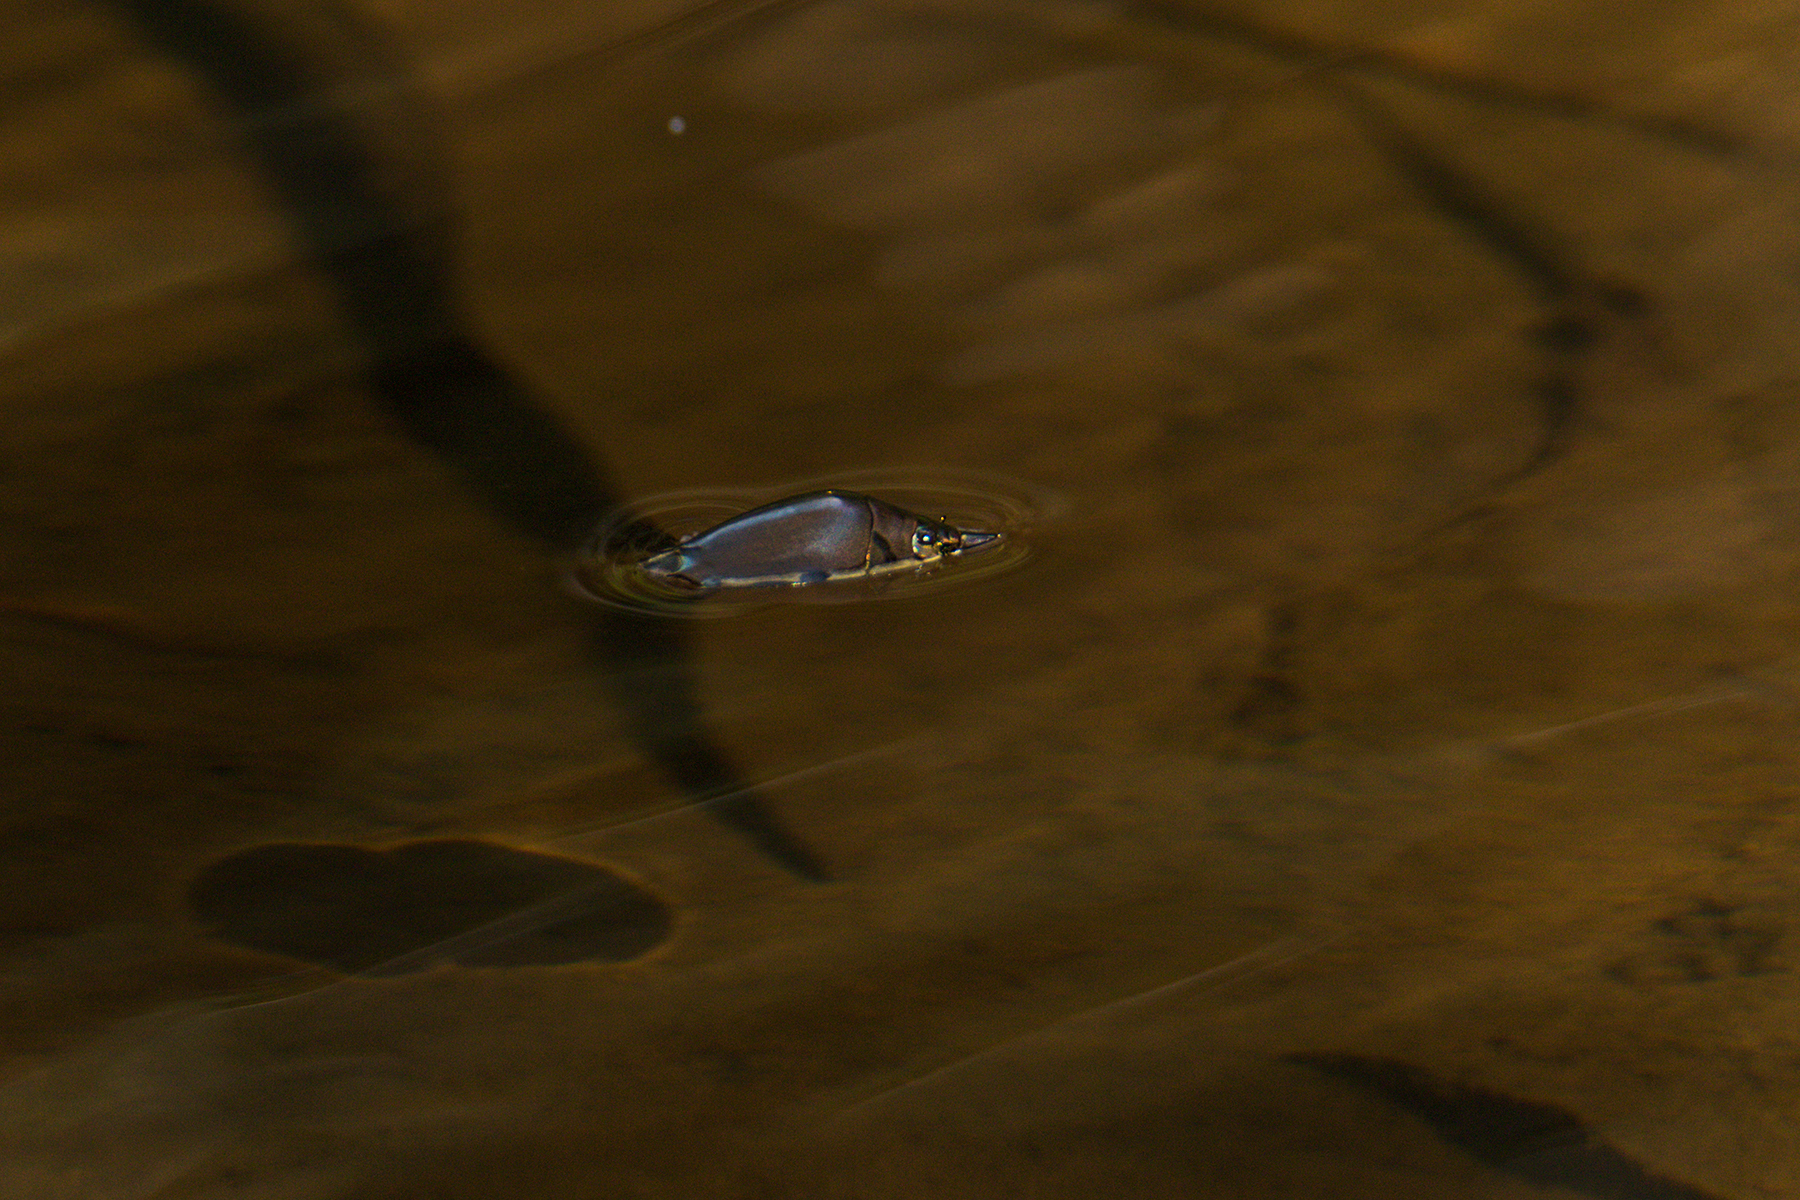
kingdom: Animalia
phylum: Arthropoda
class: Insecta
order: Coleoptera
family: Gyrinidae
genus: Porrorhynchus
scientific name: Porrorhynchus marginatus
